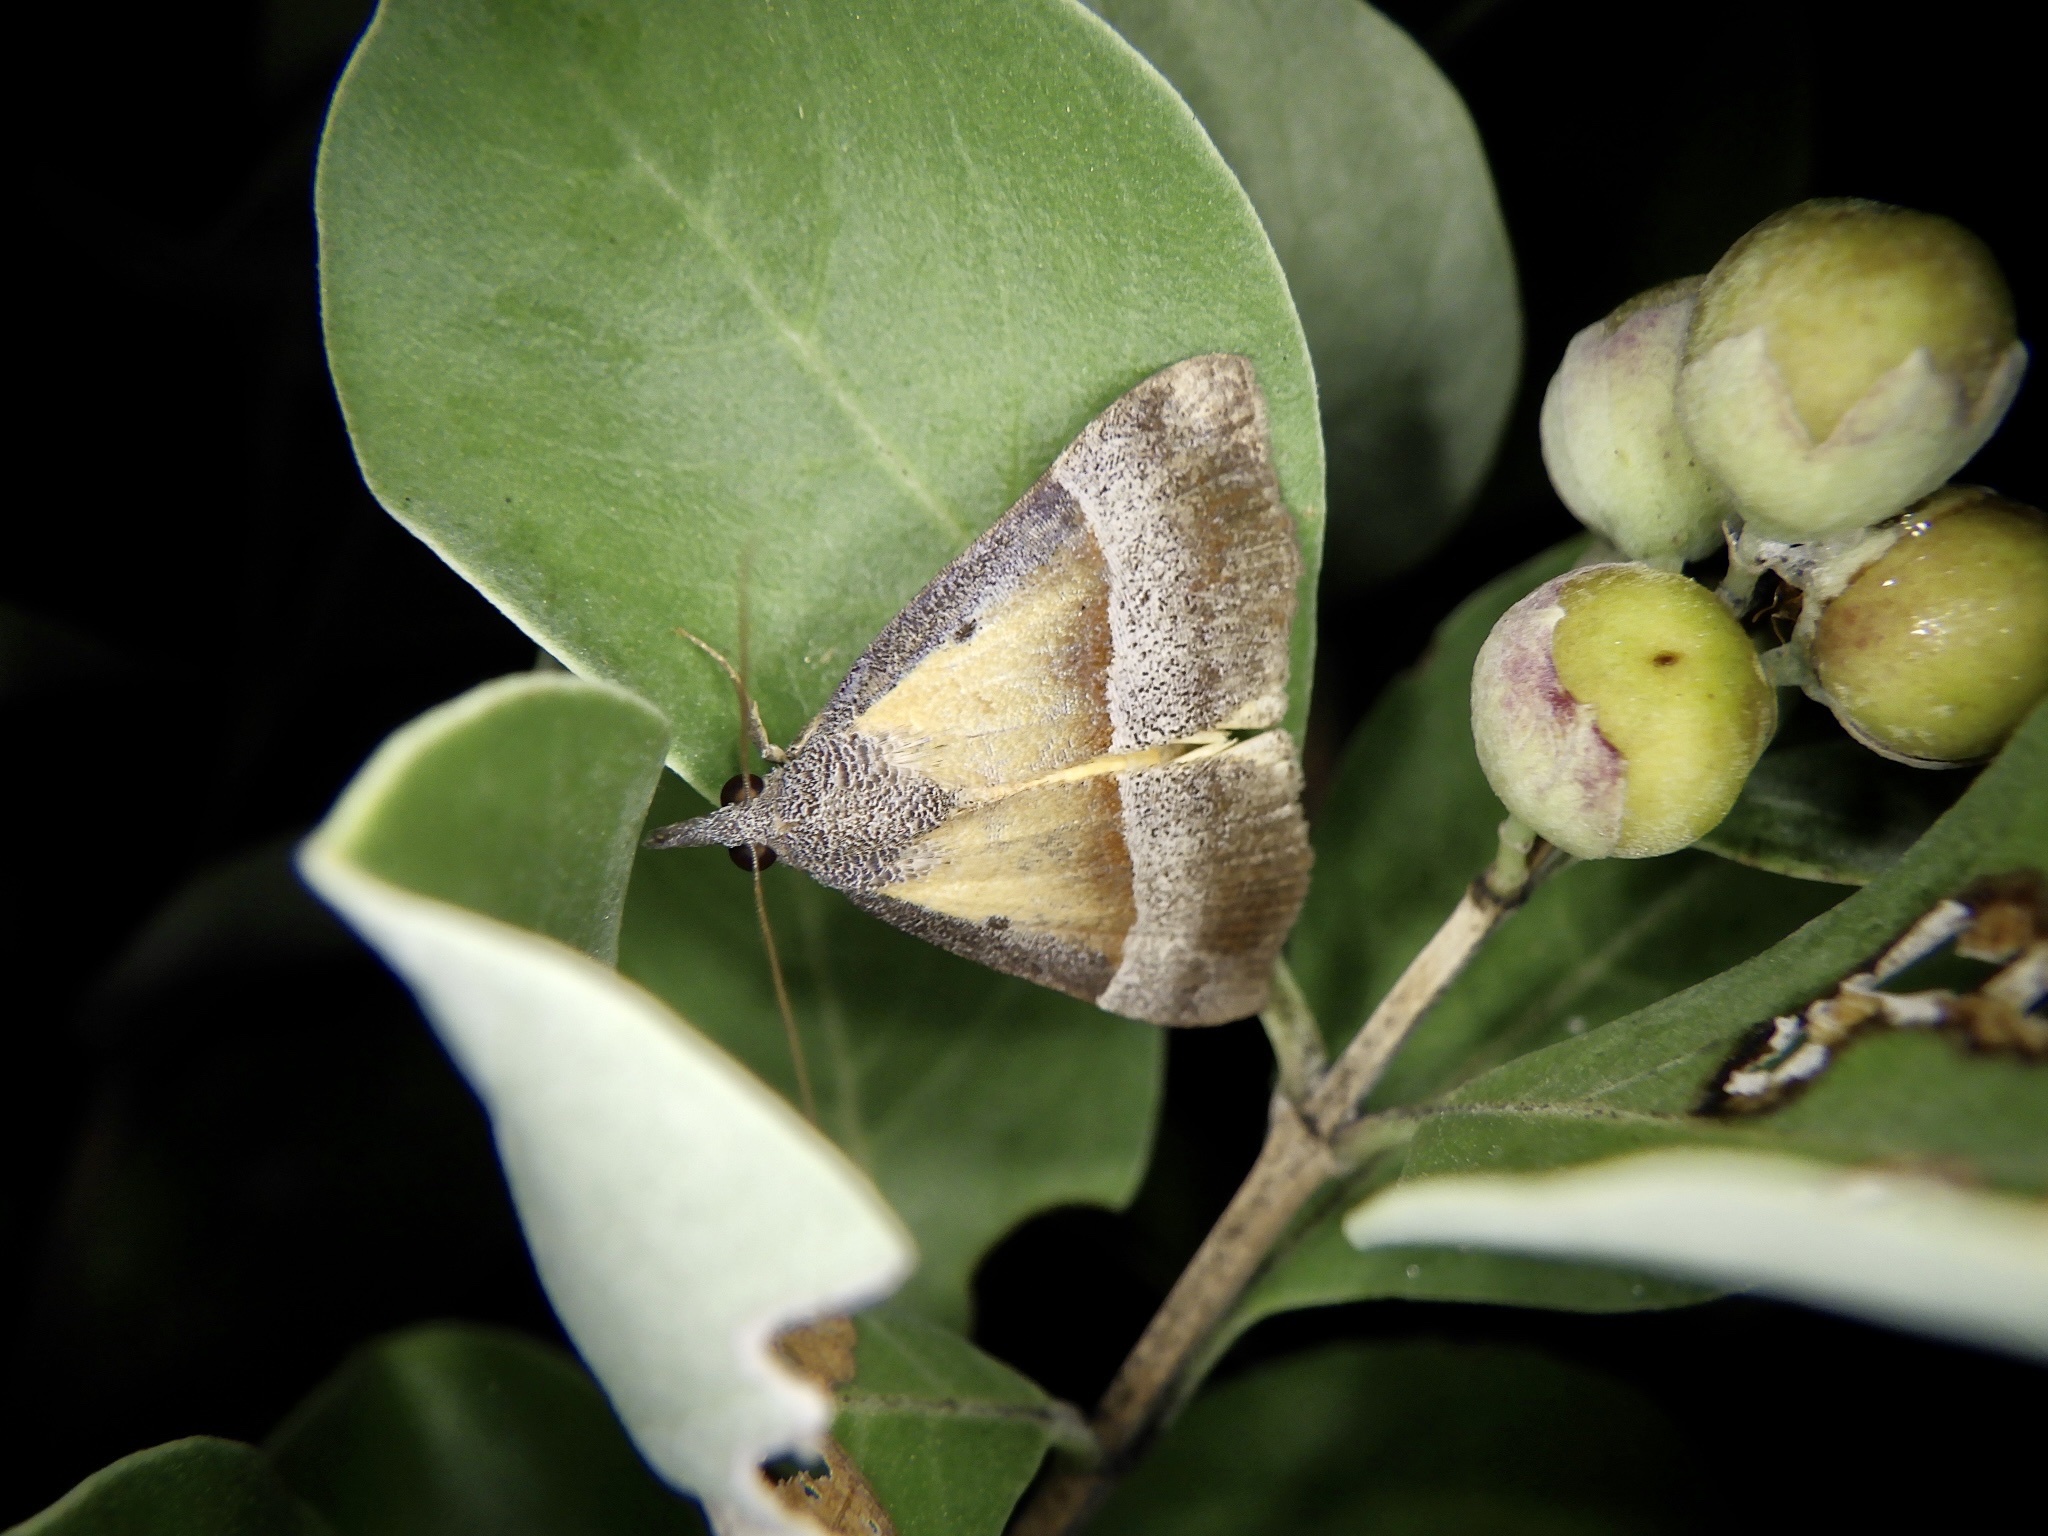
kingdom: Animalia
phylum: Arthropoda
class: Insecta
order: Lepidoptera
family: Erebidae
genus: Hypena
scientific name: Hypena claripennis
